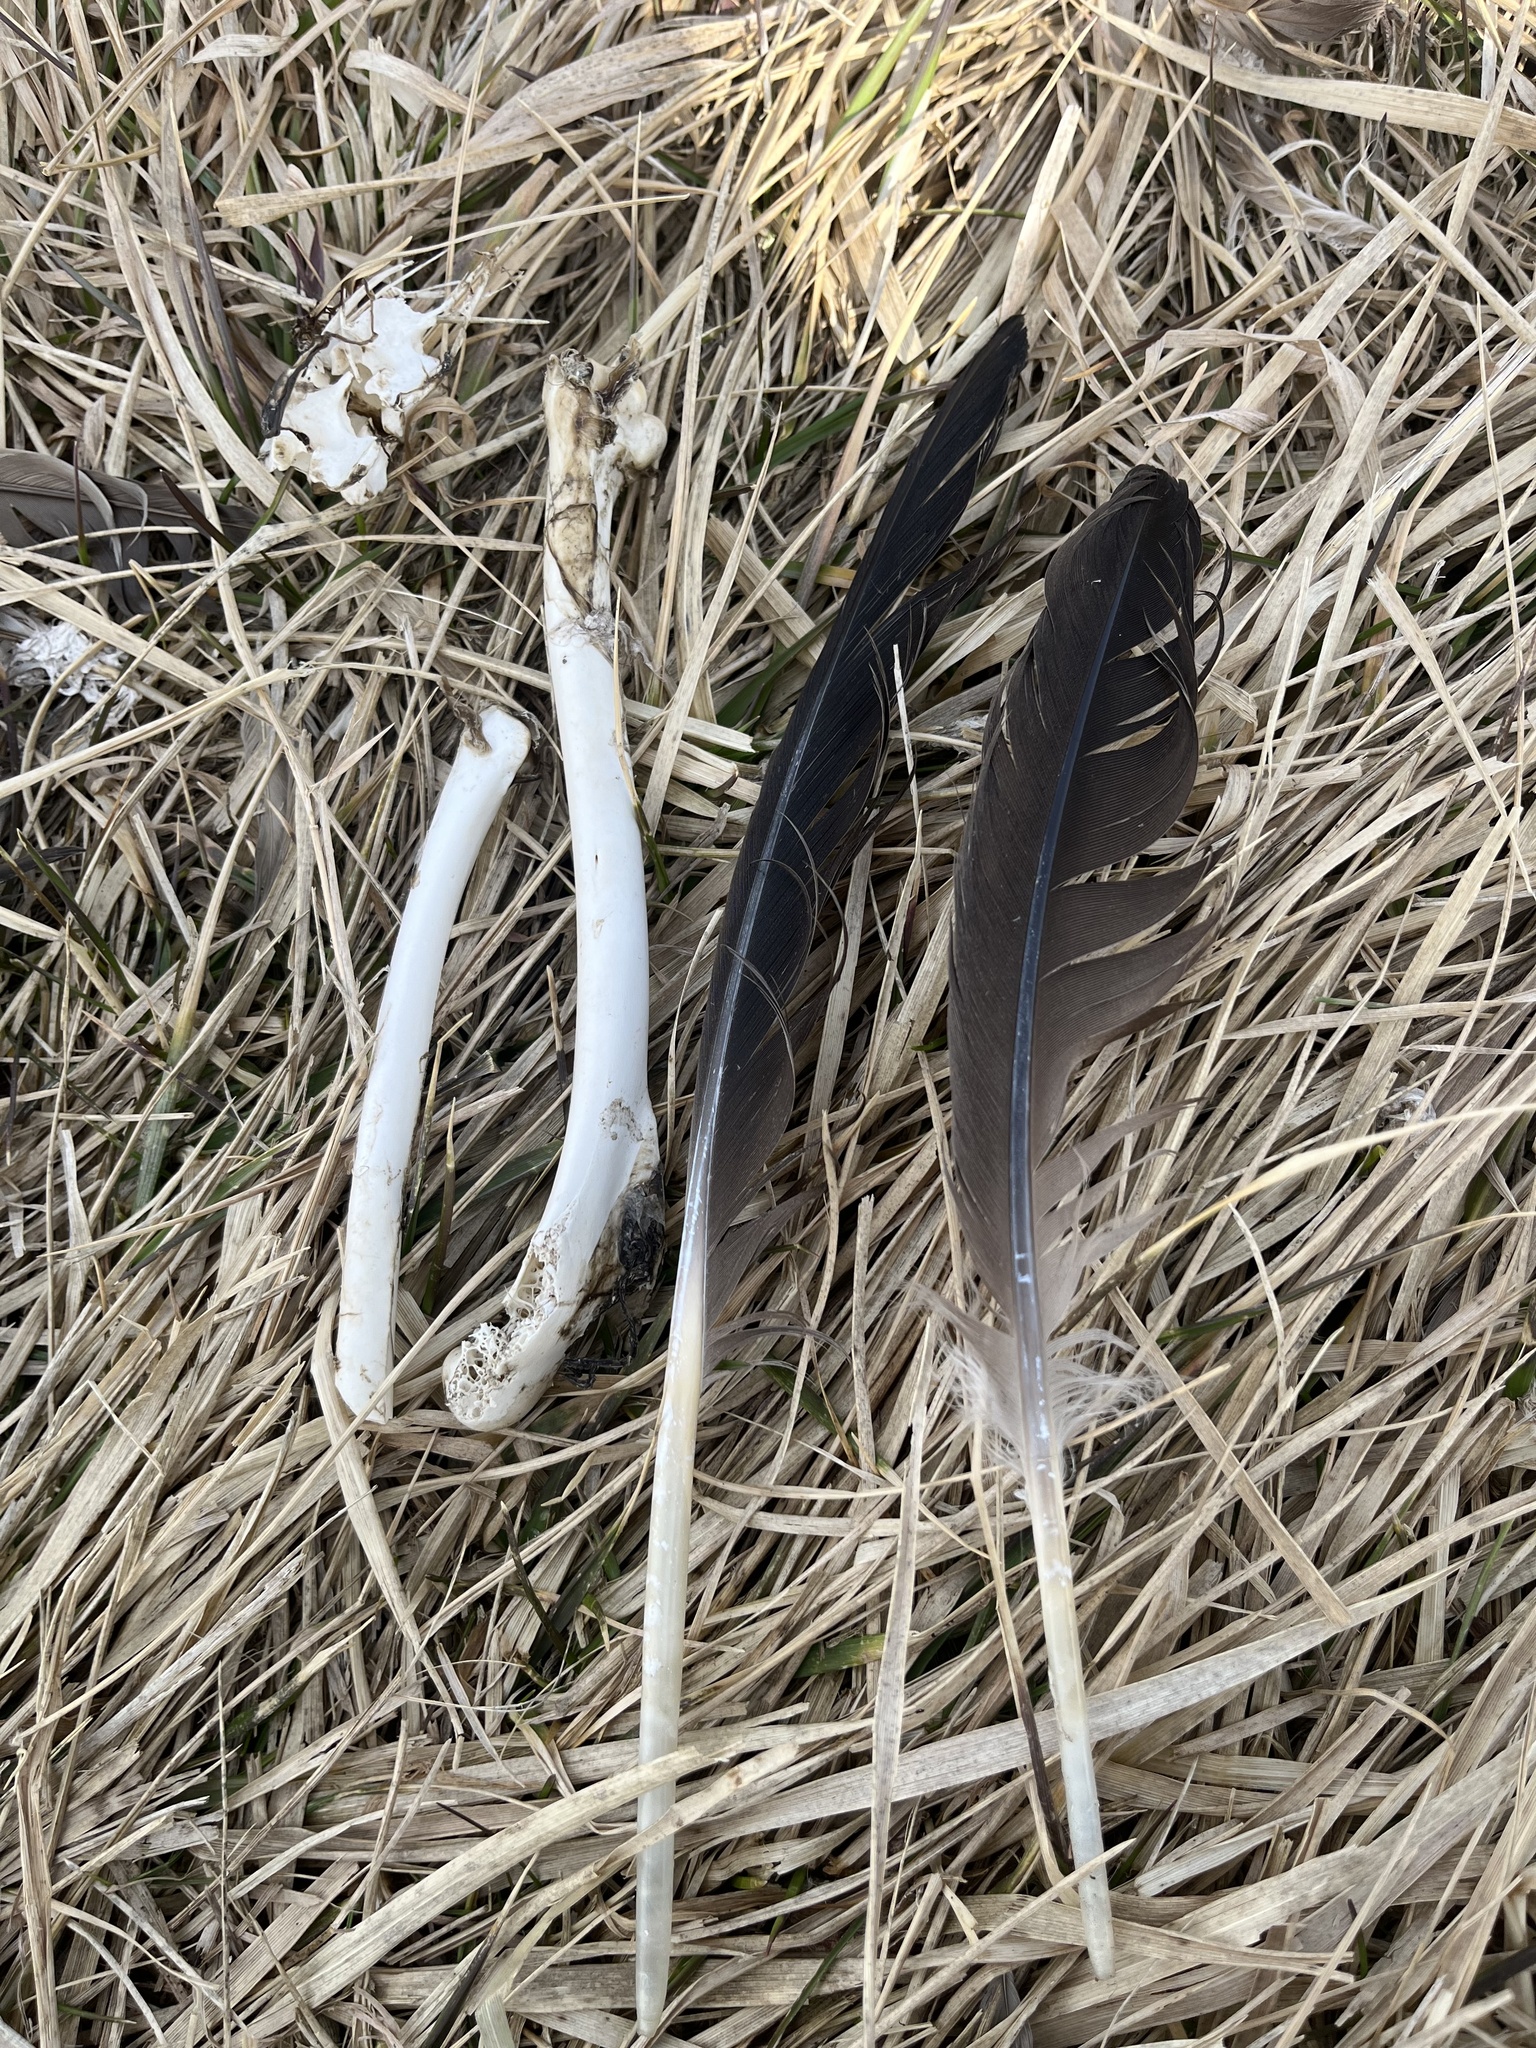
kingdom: Animalia
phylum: Chordata
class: Aves
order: Anseriformes
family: Anatidae
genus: Branta
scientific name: Branta canadensis
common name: Canada goose
